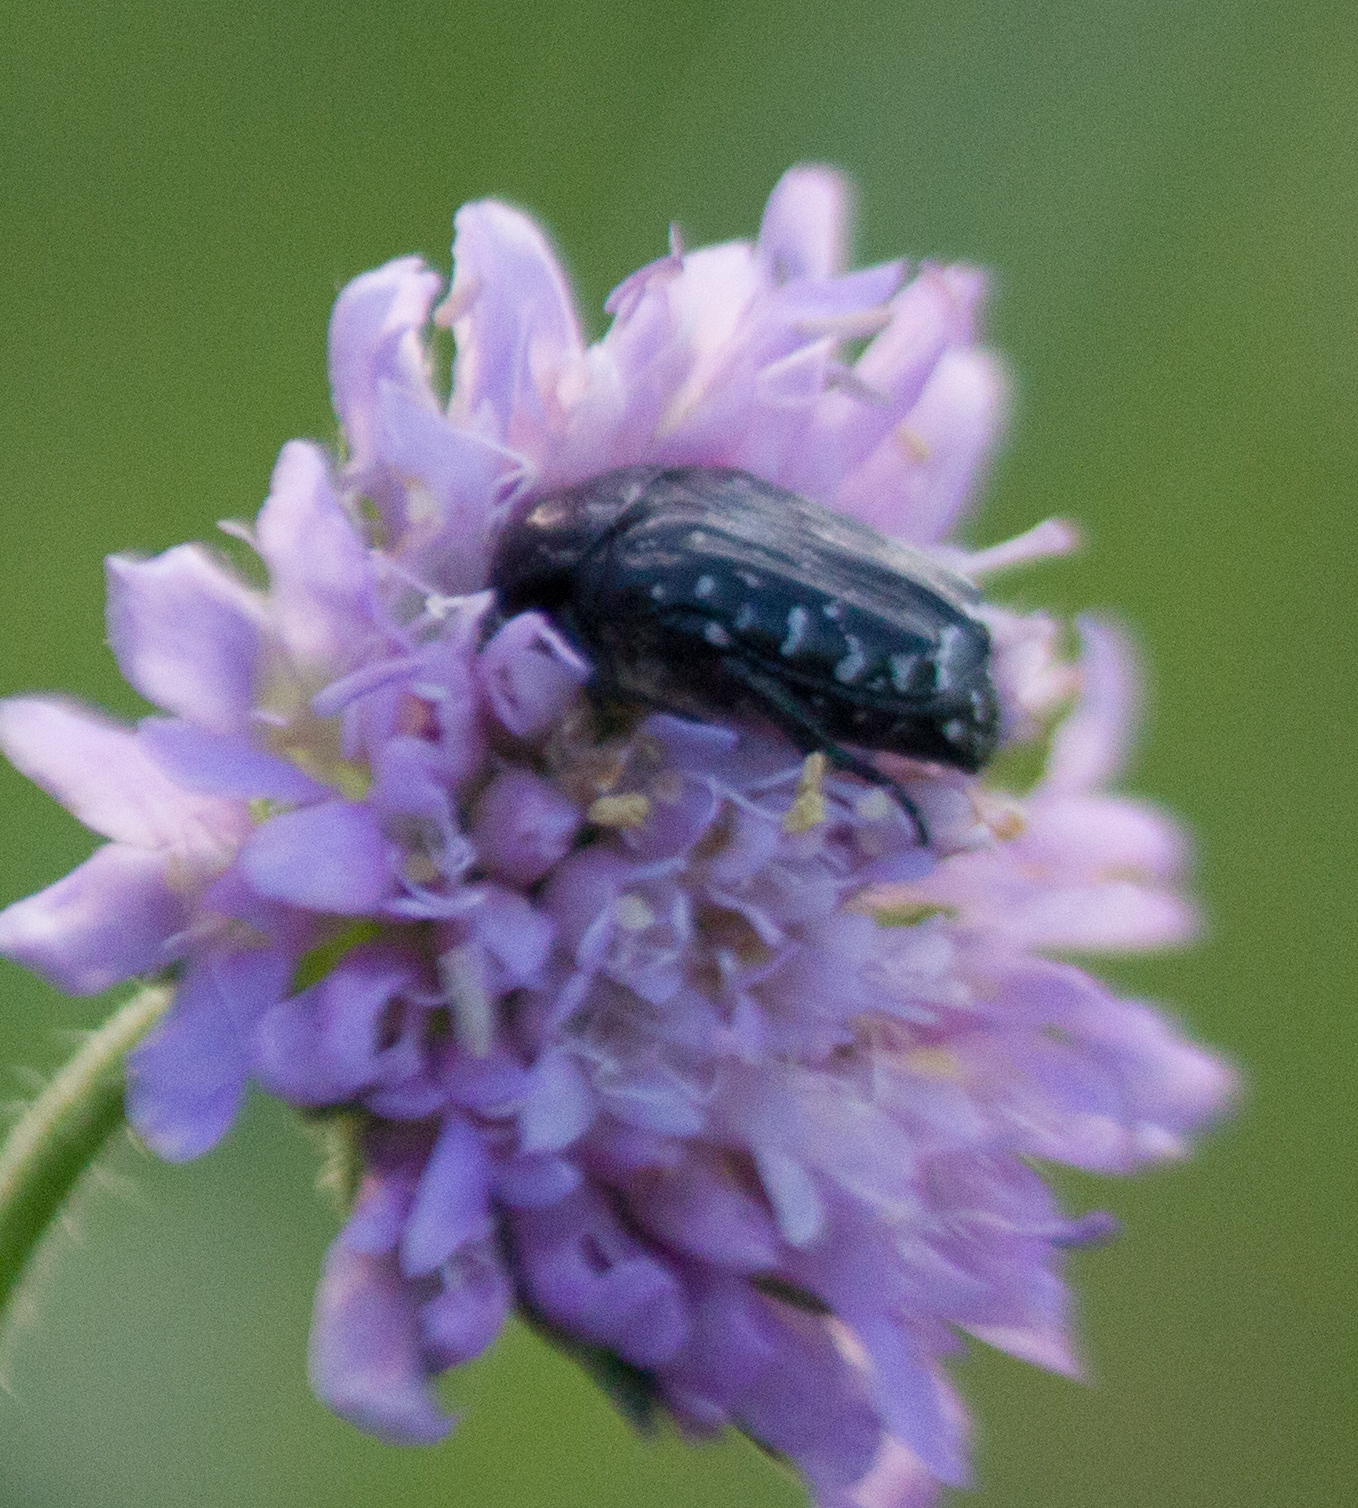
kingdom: Animalia
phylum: Arthropoda
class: Insecta
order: Coleoptera
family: Scarabaeidae
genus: Oxythyrea
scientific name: Oxythyrea funesta
